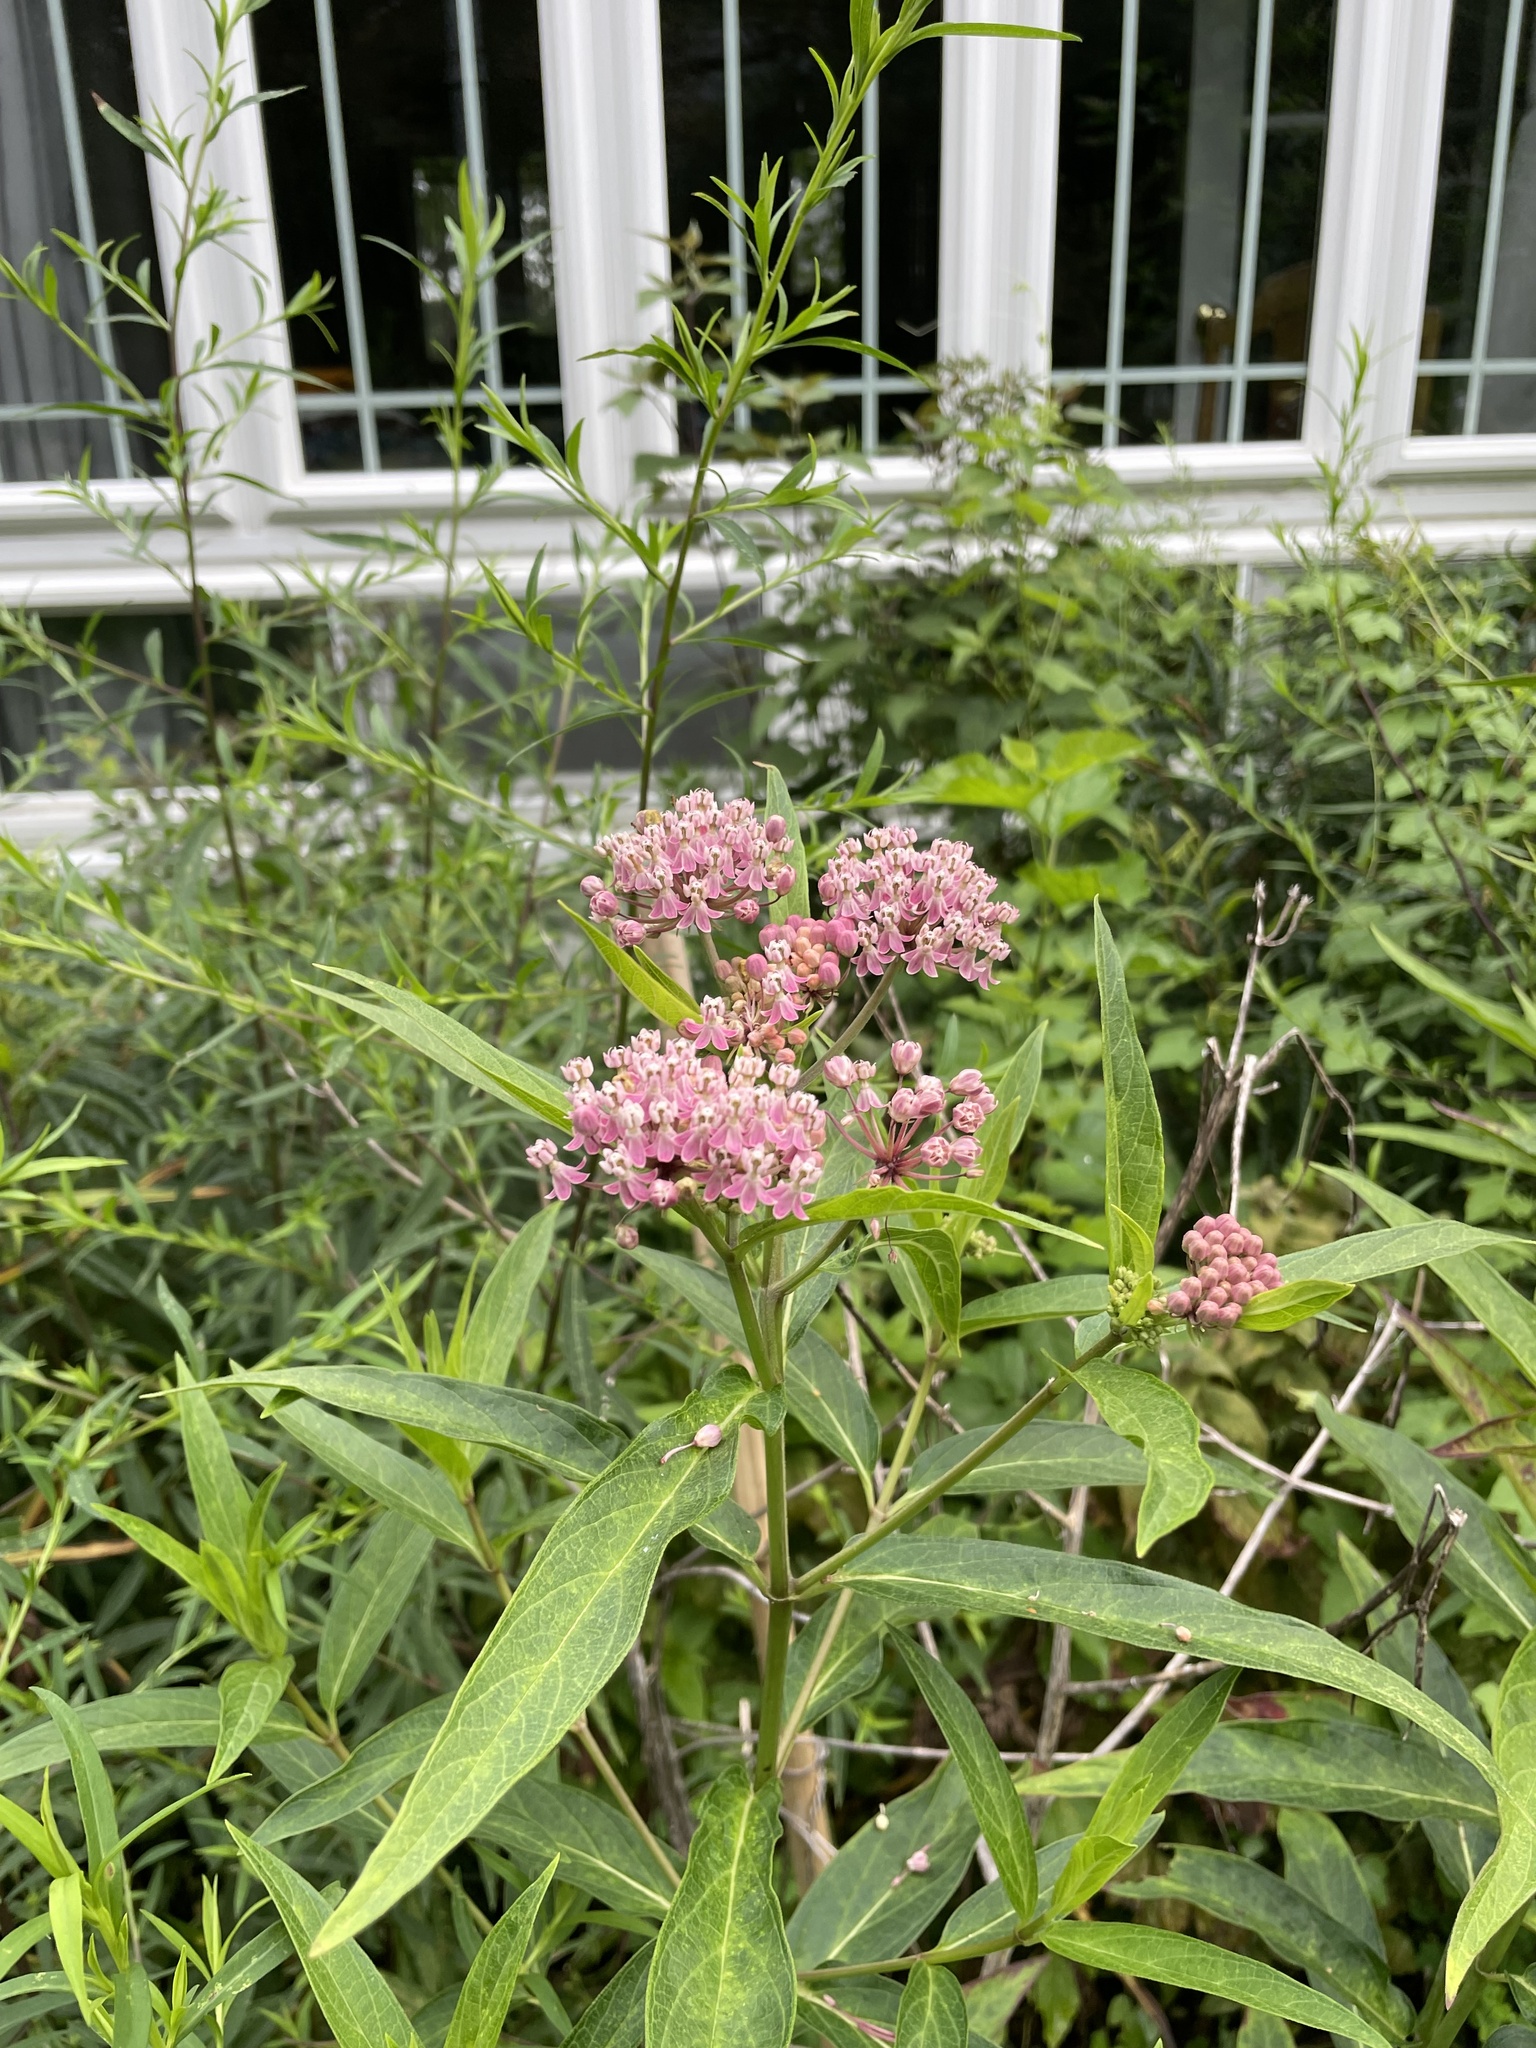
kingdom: Plantae
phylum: Tracheophyta
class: Magnoliopsida
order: Gentianales
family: Apocynaceae
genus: Asclepias
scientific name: Asclepias incarnata
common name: Swamp milkweed
